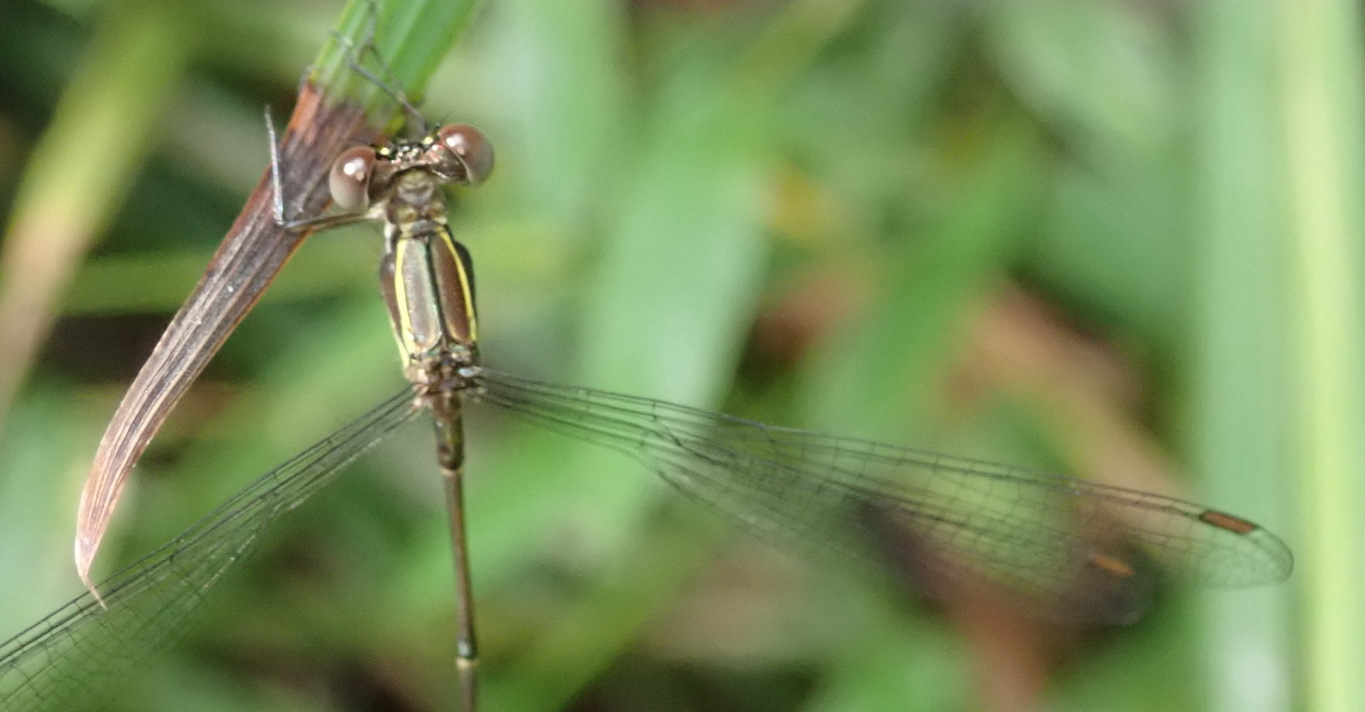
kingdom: Animalia
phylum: Arthropoda
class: Insecta
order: Odonata
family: Synlestidae
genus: Chlorolestes
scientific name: Chlorolestes umbratus
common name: White malachite
